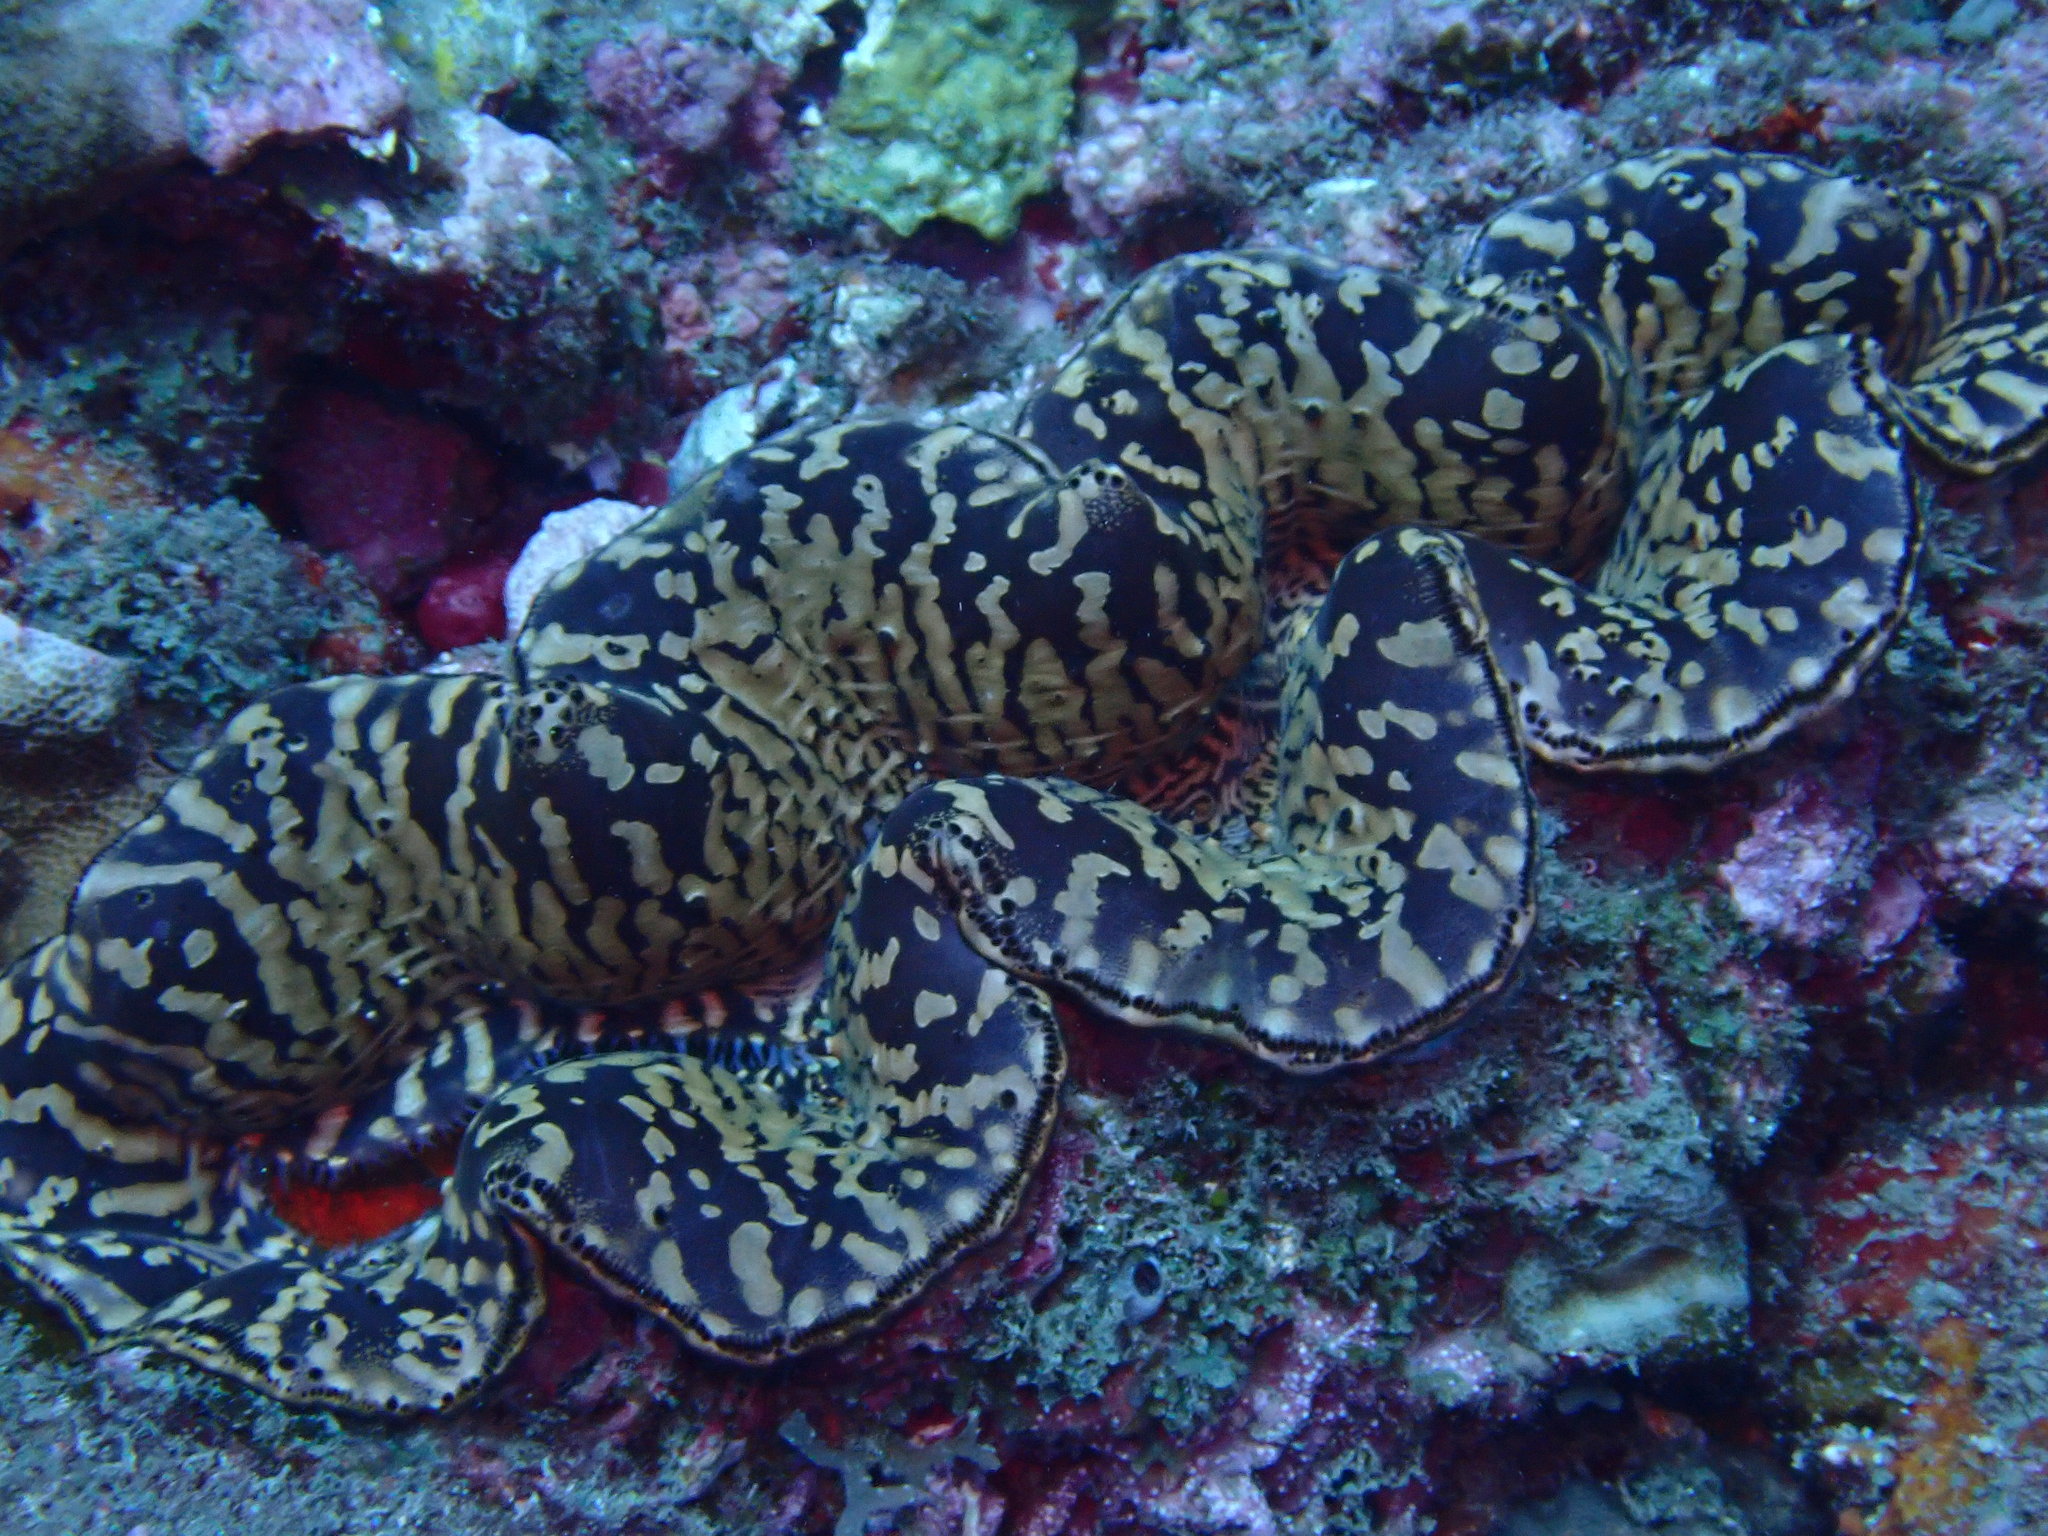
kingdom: Animalia
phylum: Mollusca
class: Bivalvia
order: Cardiida
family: Cardiidae
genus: Tridacna
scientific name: Tridacna maxima
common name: Small giant clam
